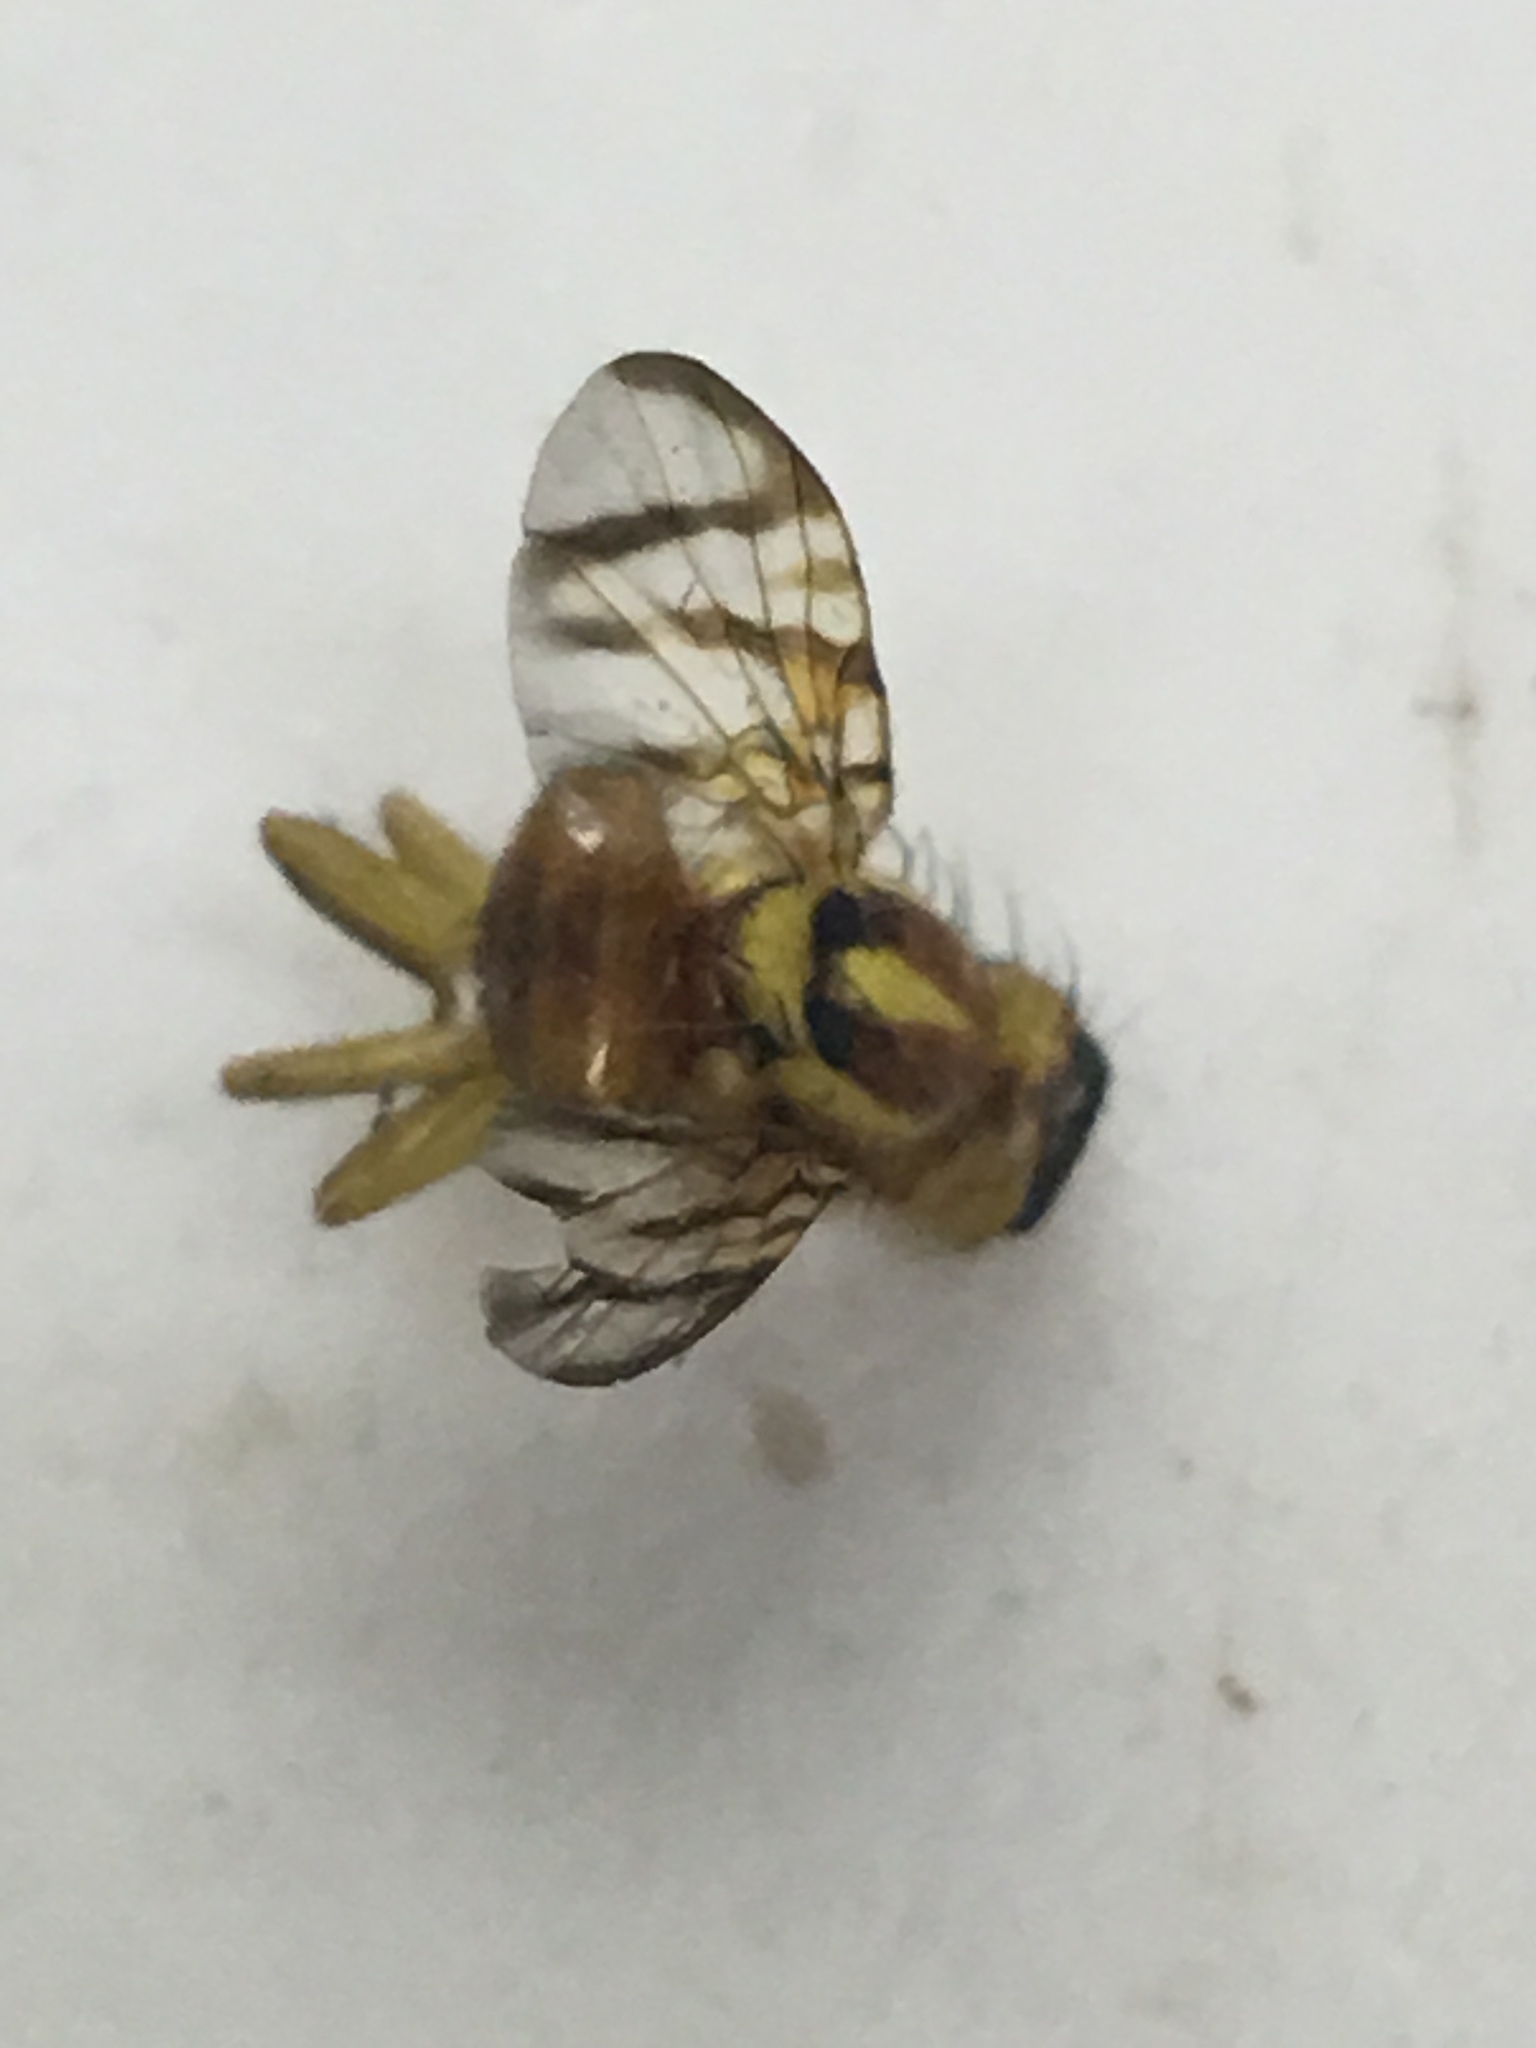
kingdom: Animalia
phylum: Arthropoda
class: Insecta
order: Diptera
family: Tephritidae
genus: Zonosemata
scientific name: Zonosemata electa
